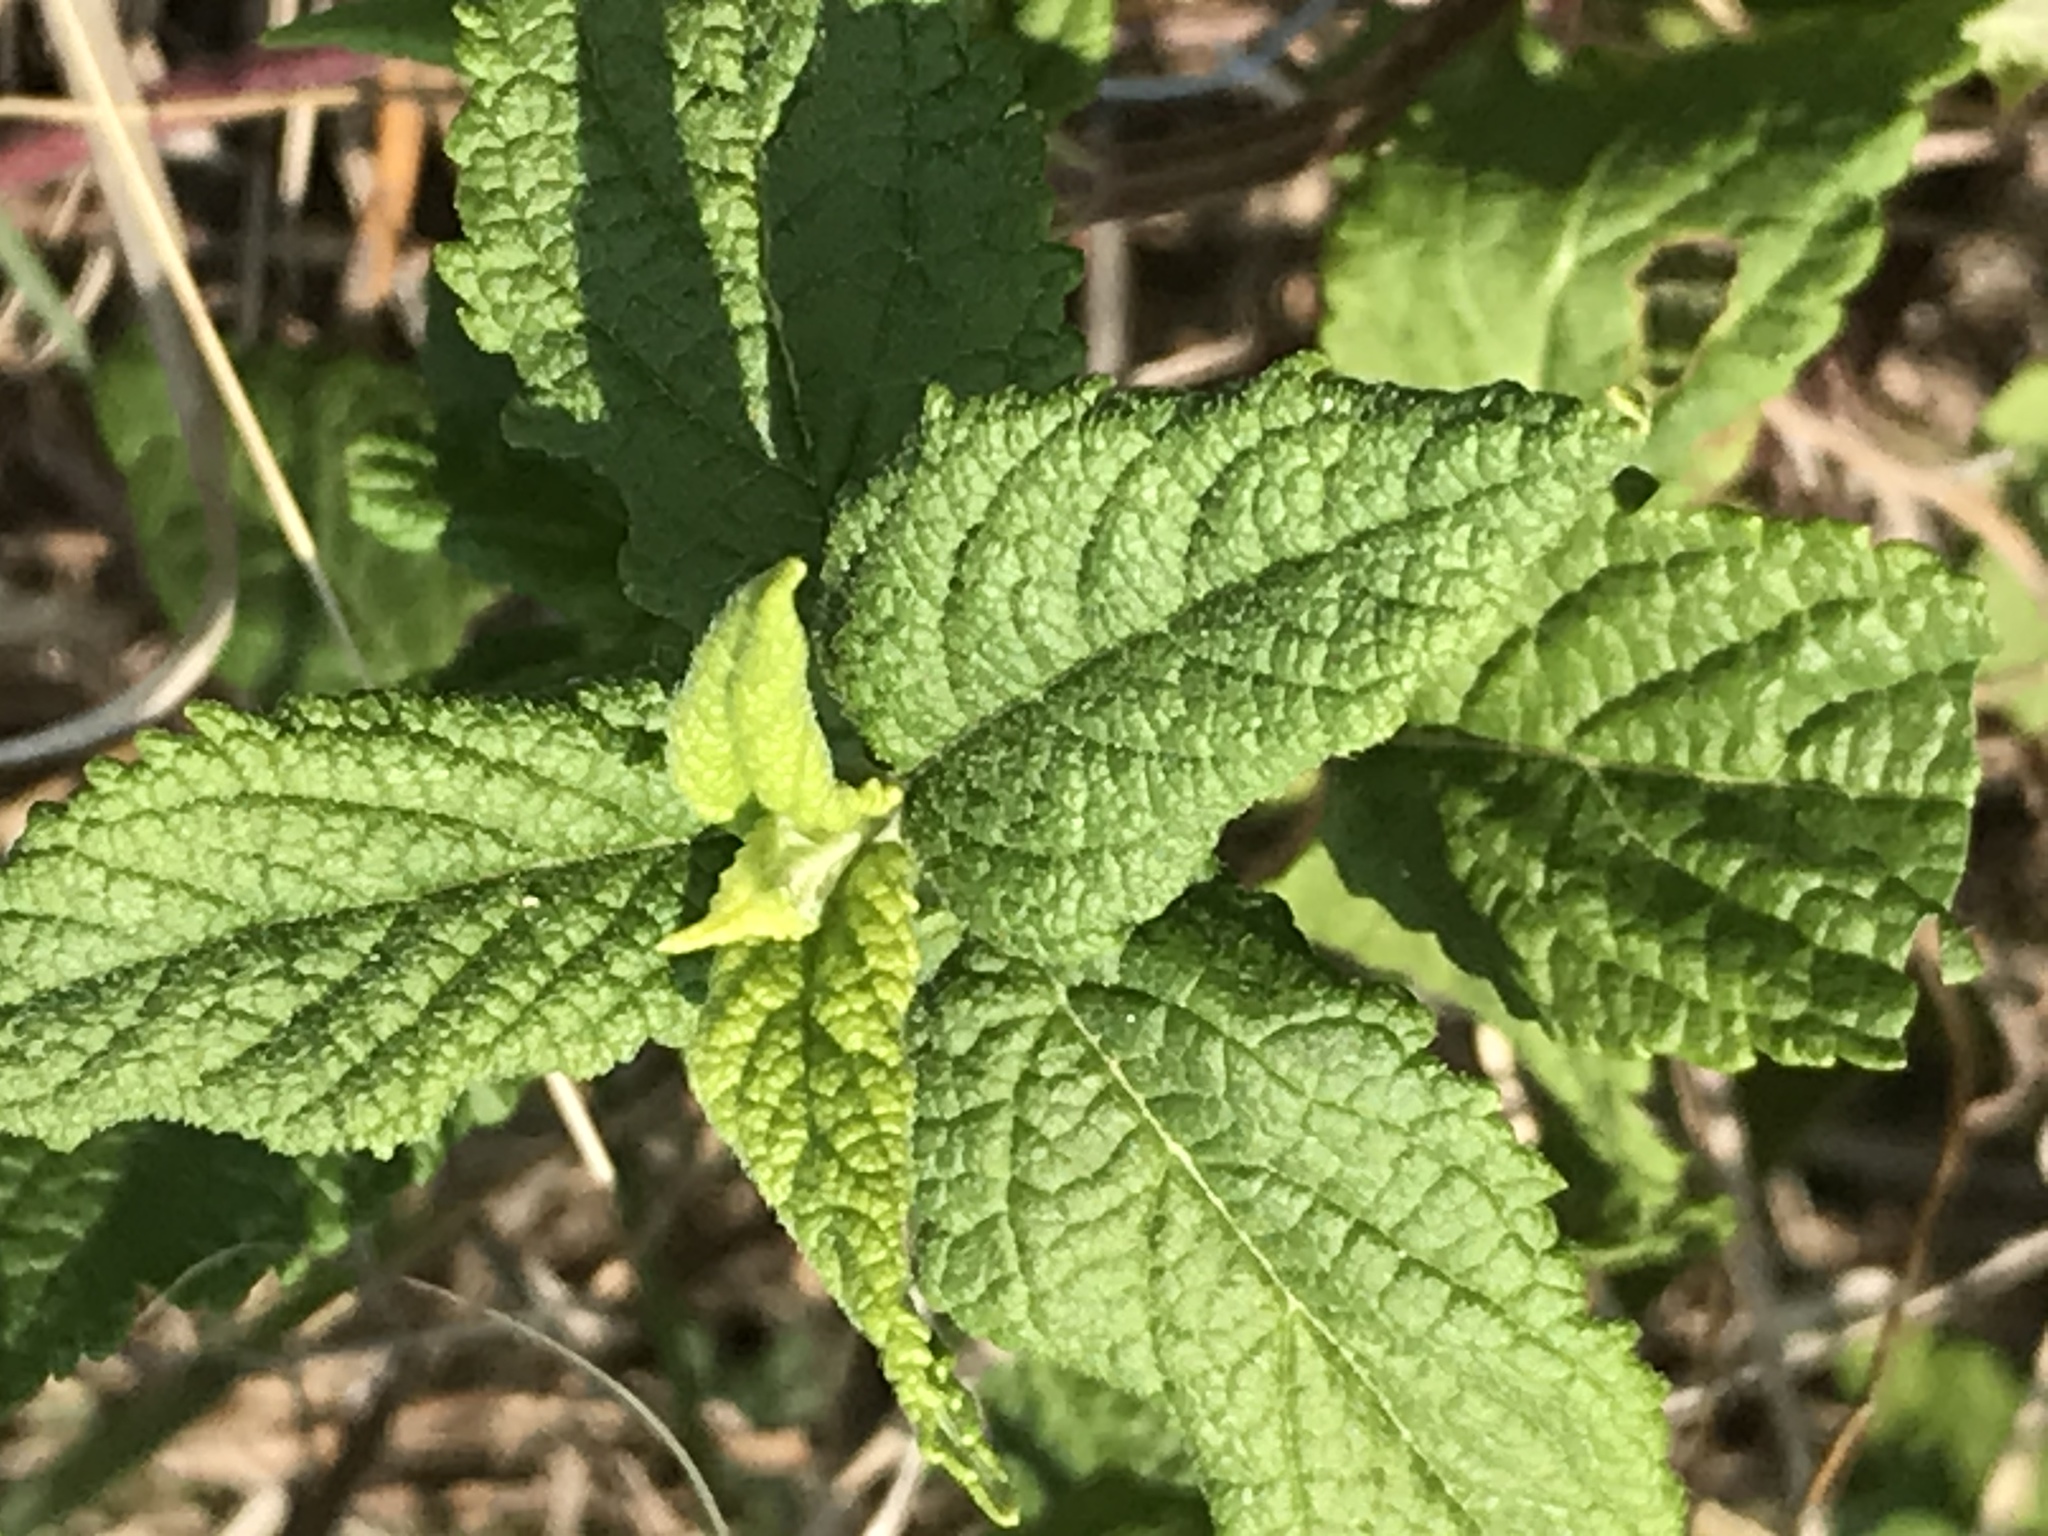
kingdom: Plantae
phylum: Tracheophyta
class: Magnoliopsida
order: Lamiales
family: Lamiaceae
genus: Teucrium
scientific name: Teucrium canadense
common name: American germander
